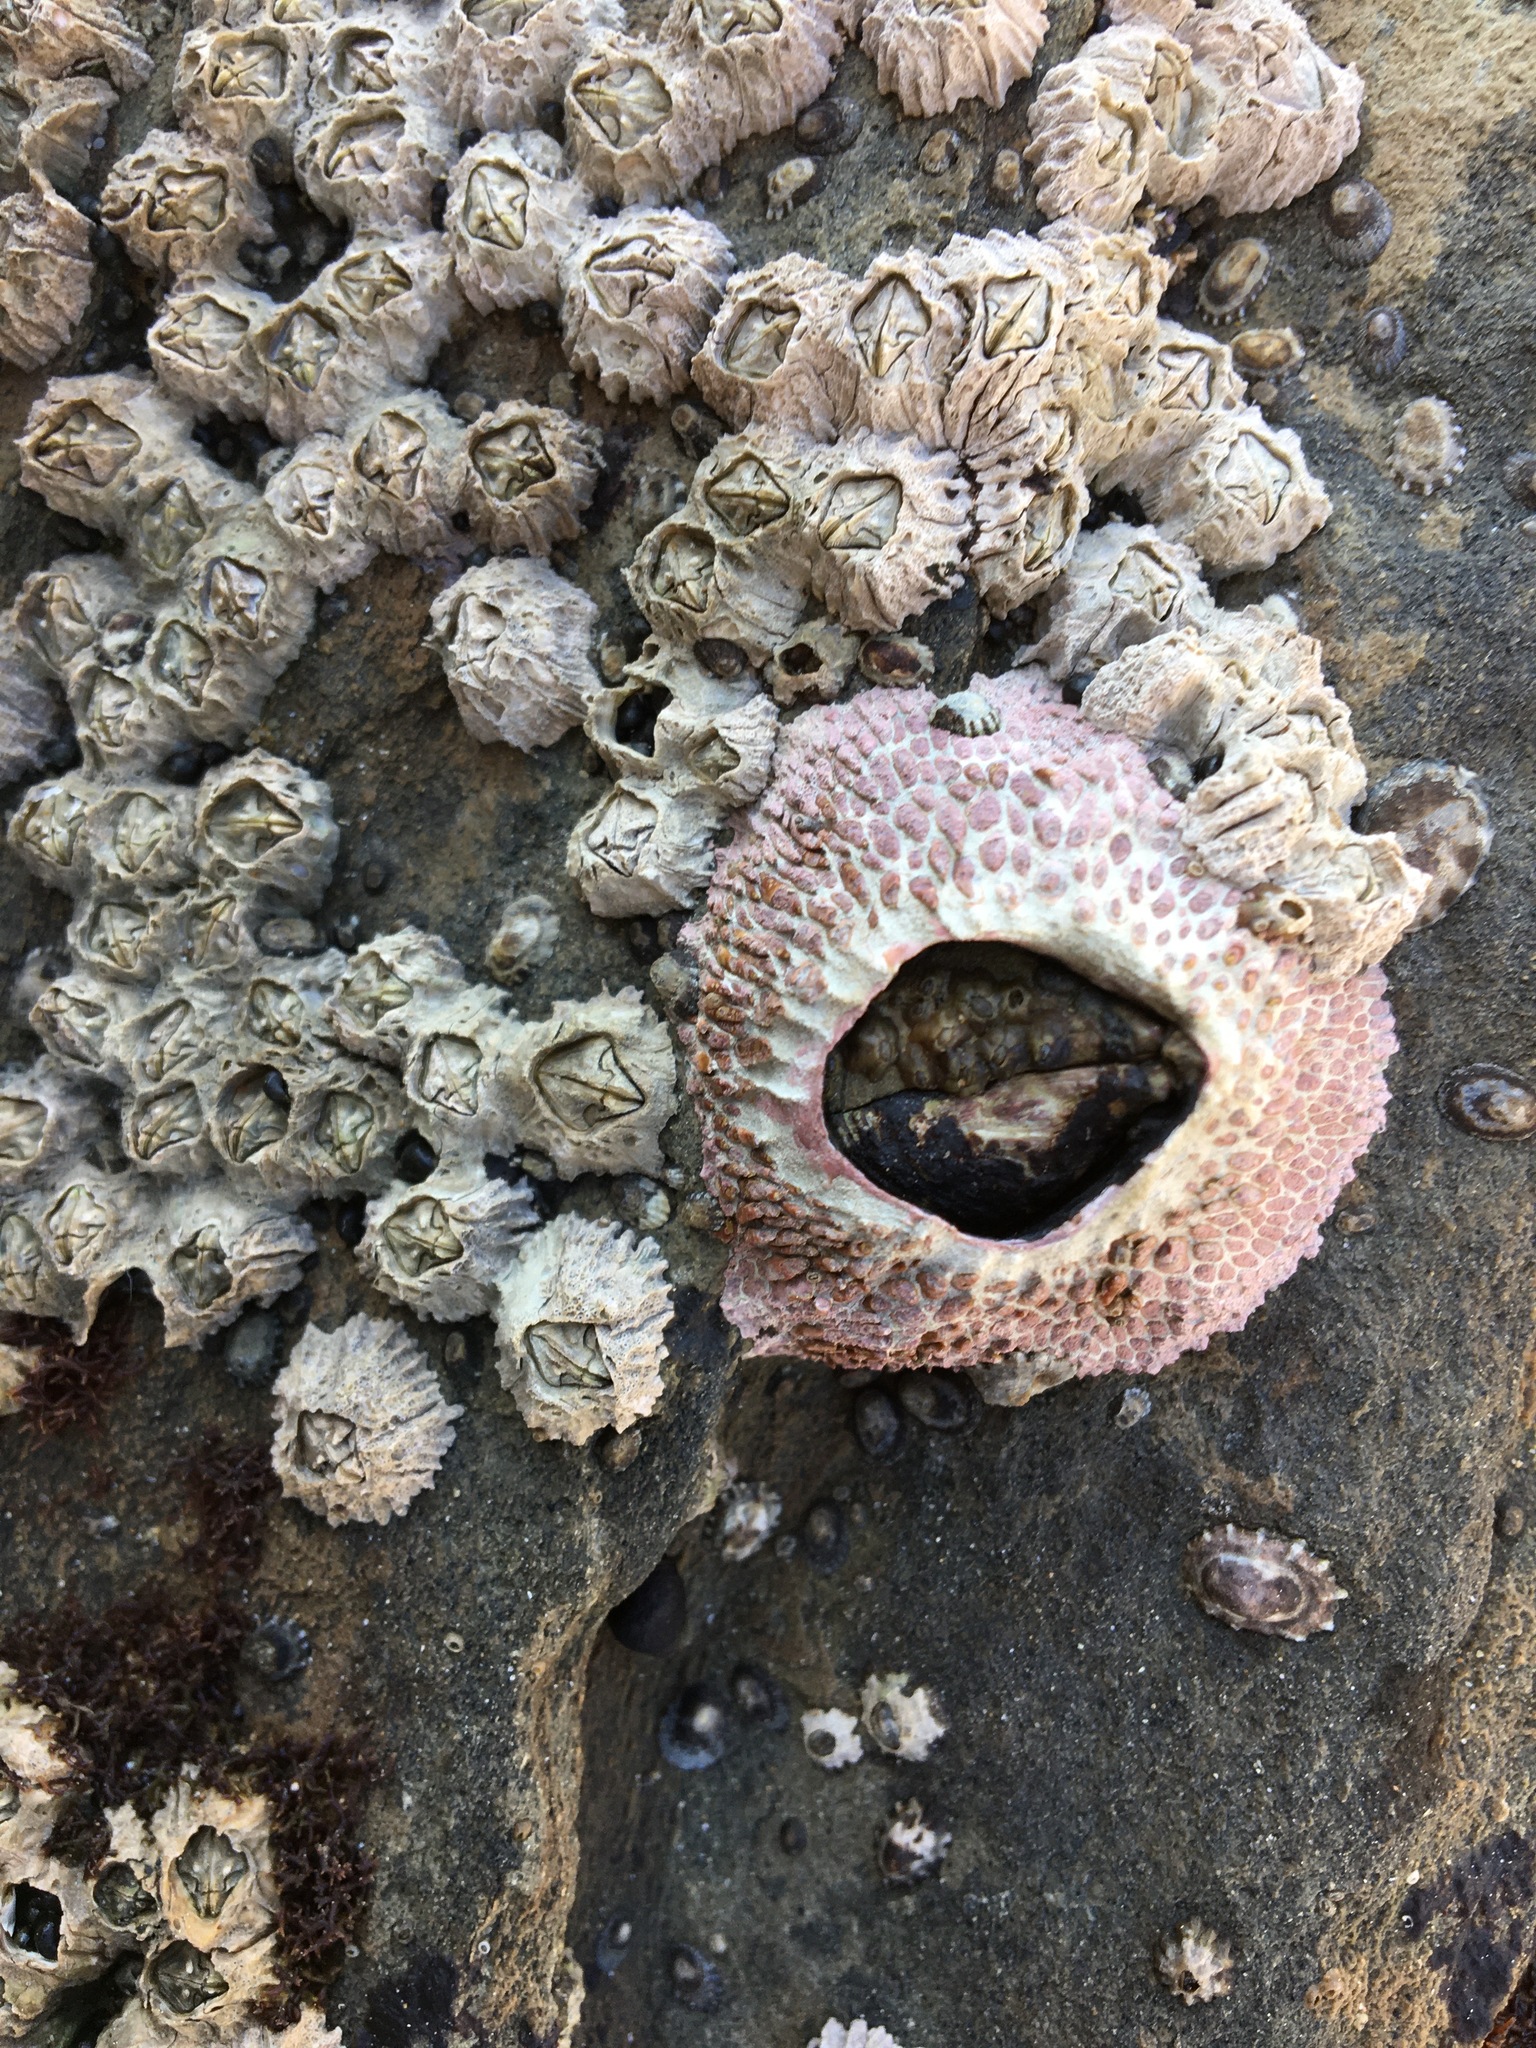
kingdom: Animalia
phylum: Arthropoda
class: Maxillopoda
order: Sessilia
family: Tetraclitidae
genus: Tetraclita
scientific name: Tetraclita rubescens
